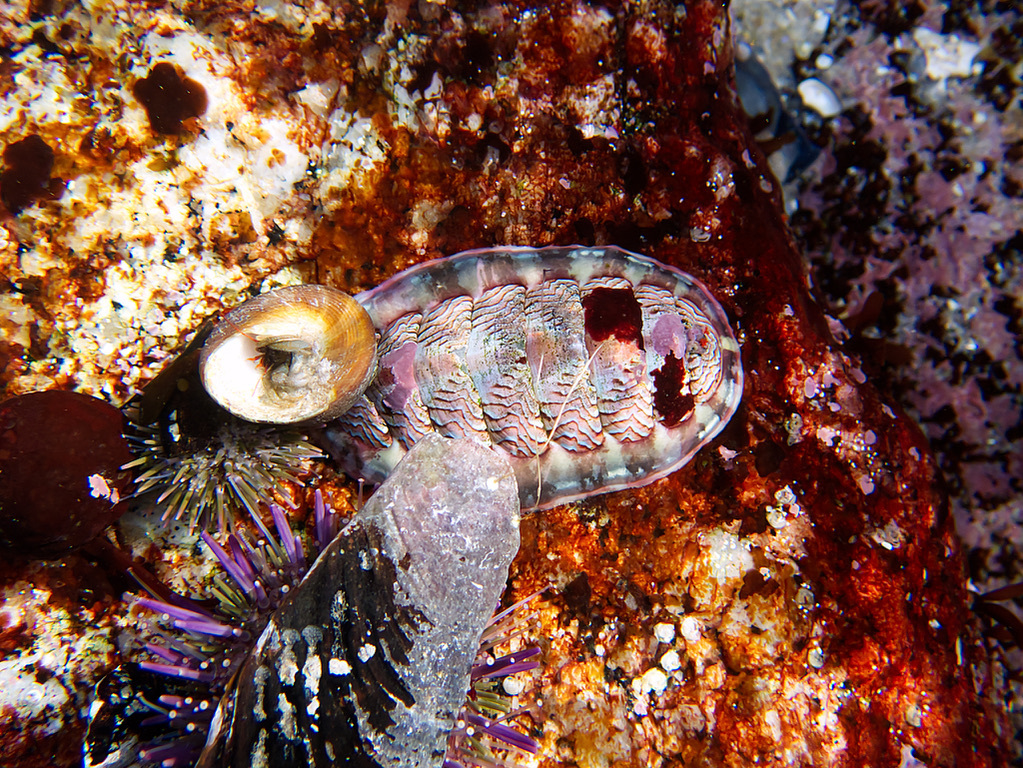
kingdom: Animalia
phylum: Mollusca
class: Polyplacophora
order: Chitonida
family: Tonicellidae
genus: Tonicella
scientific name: Tonicella lokii
